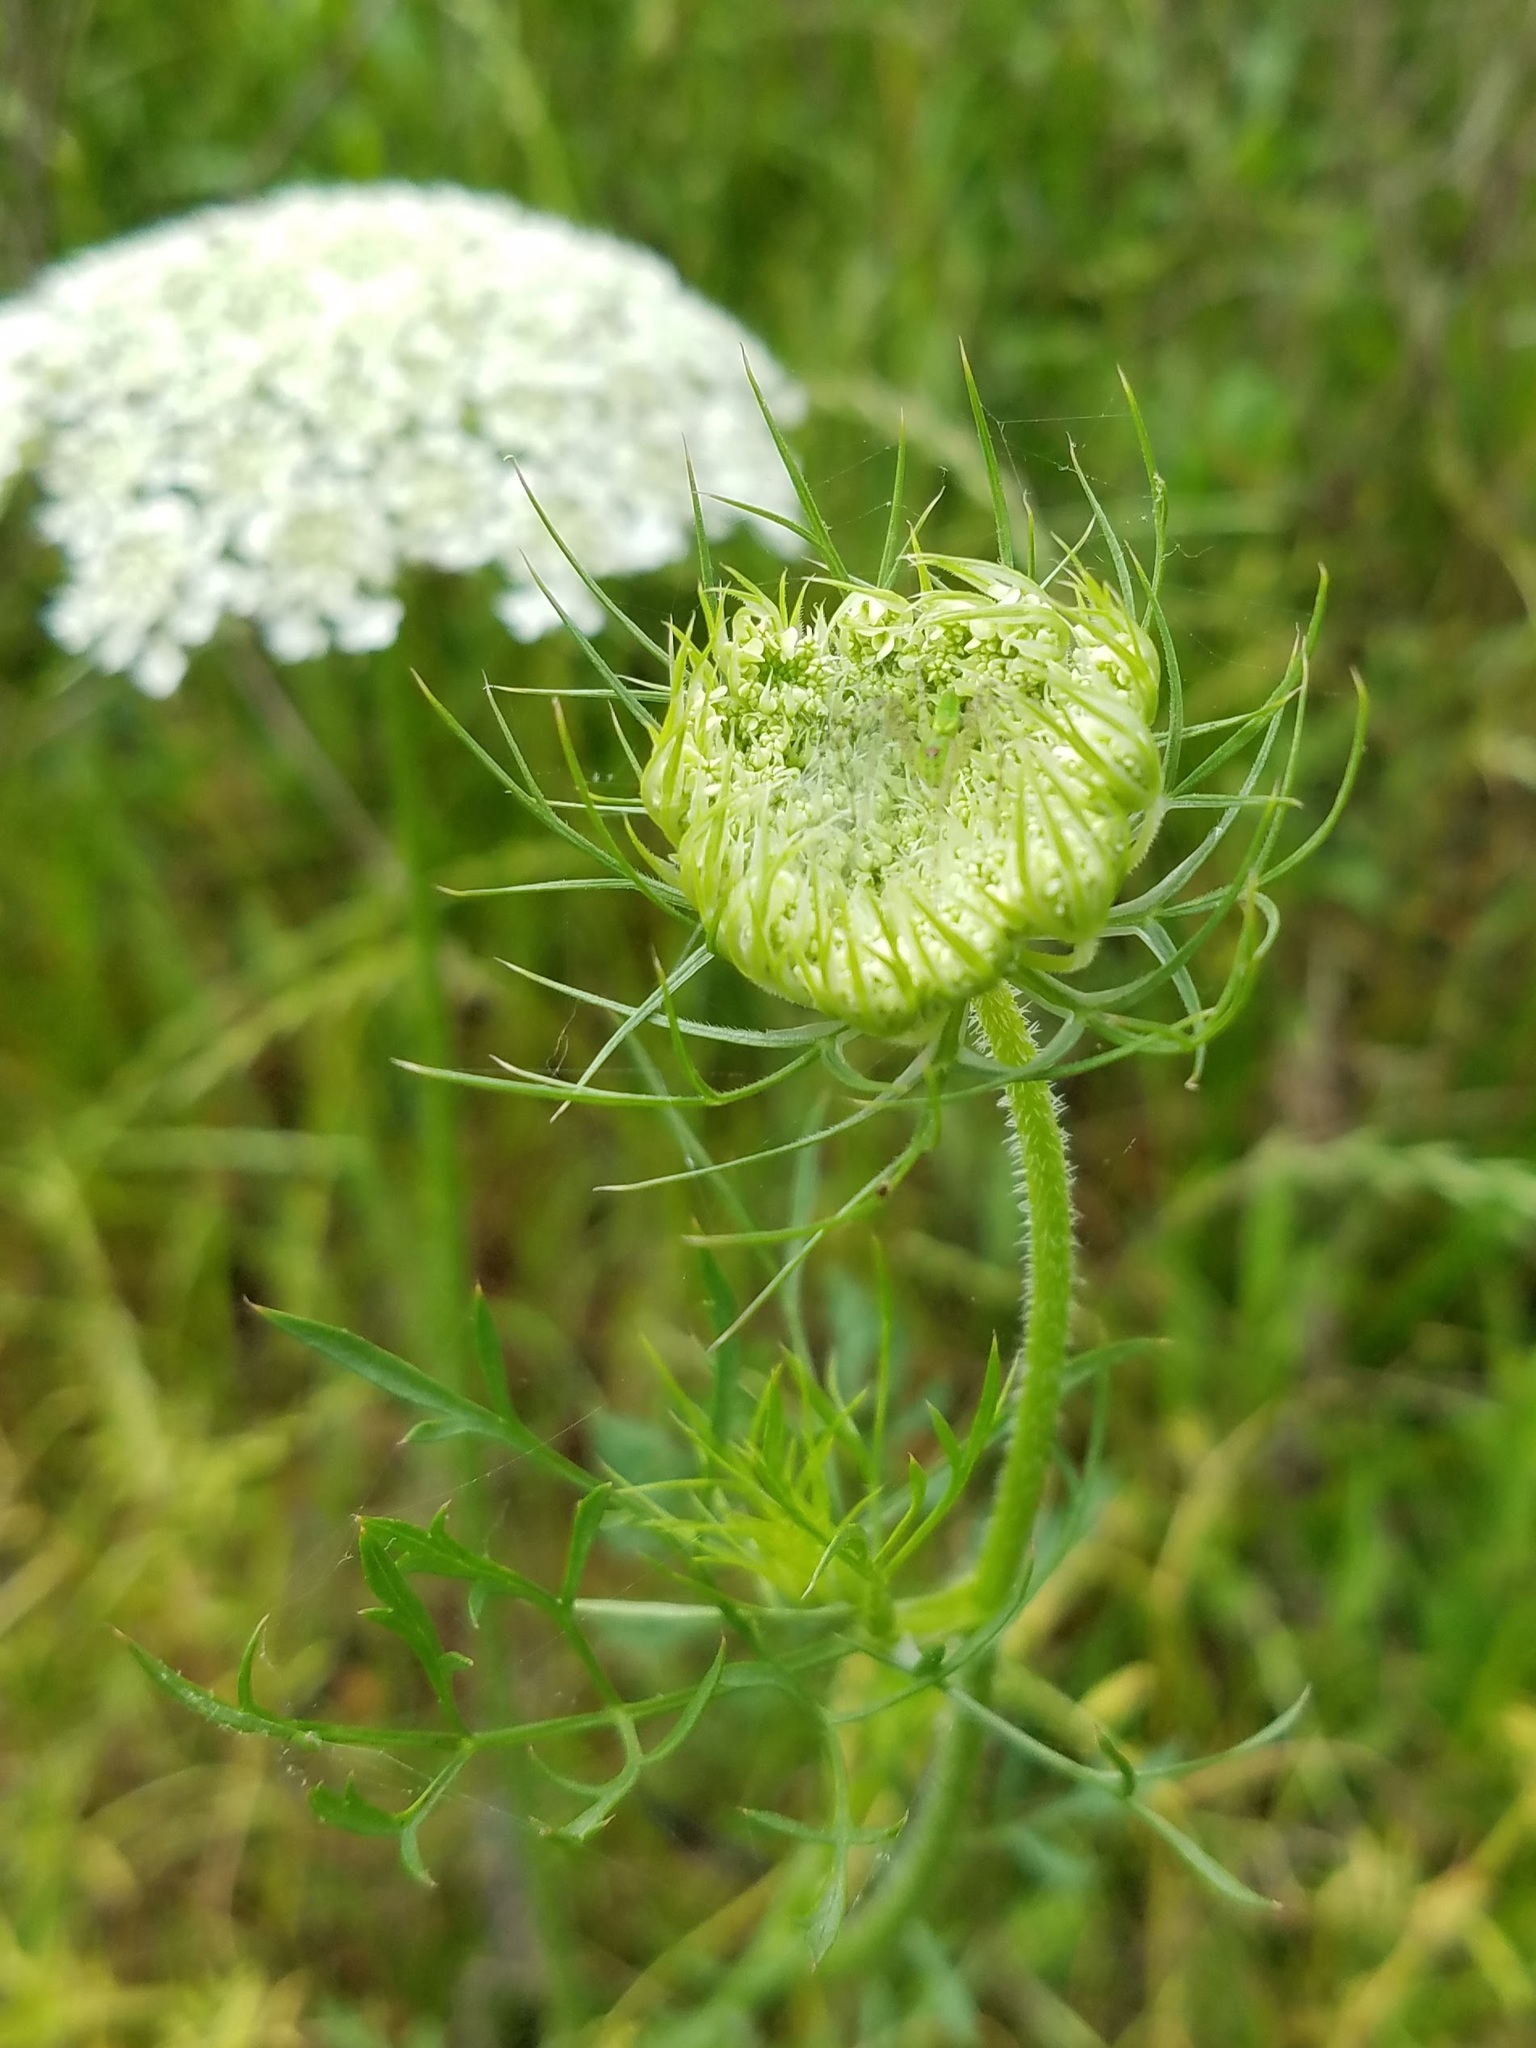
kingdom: Plantae
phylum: Tracheophyta
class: Magnoliopsida
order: Apiales
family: Apiaceae
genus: Daucus
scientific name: Daucus carota
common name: Wild carrot
